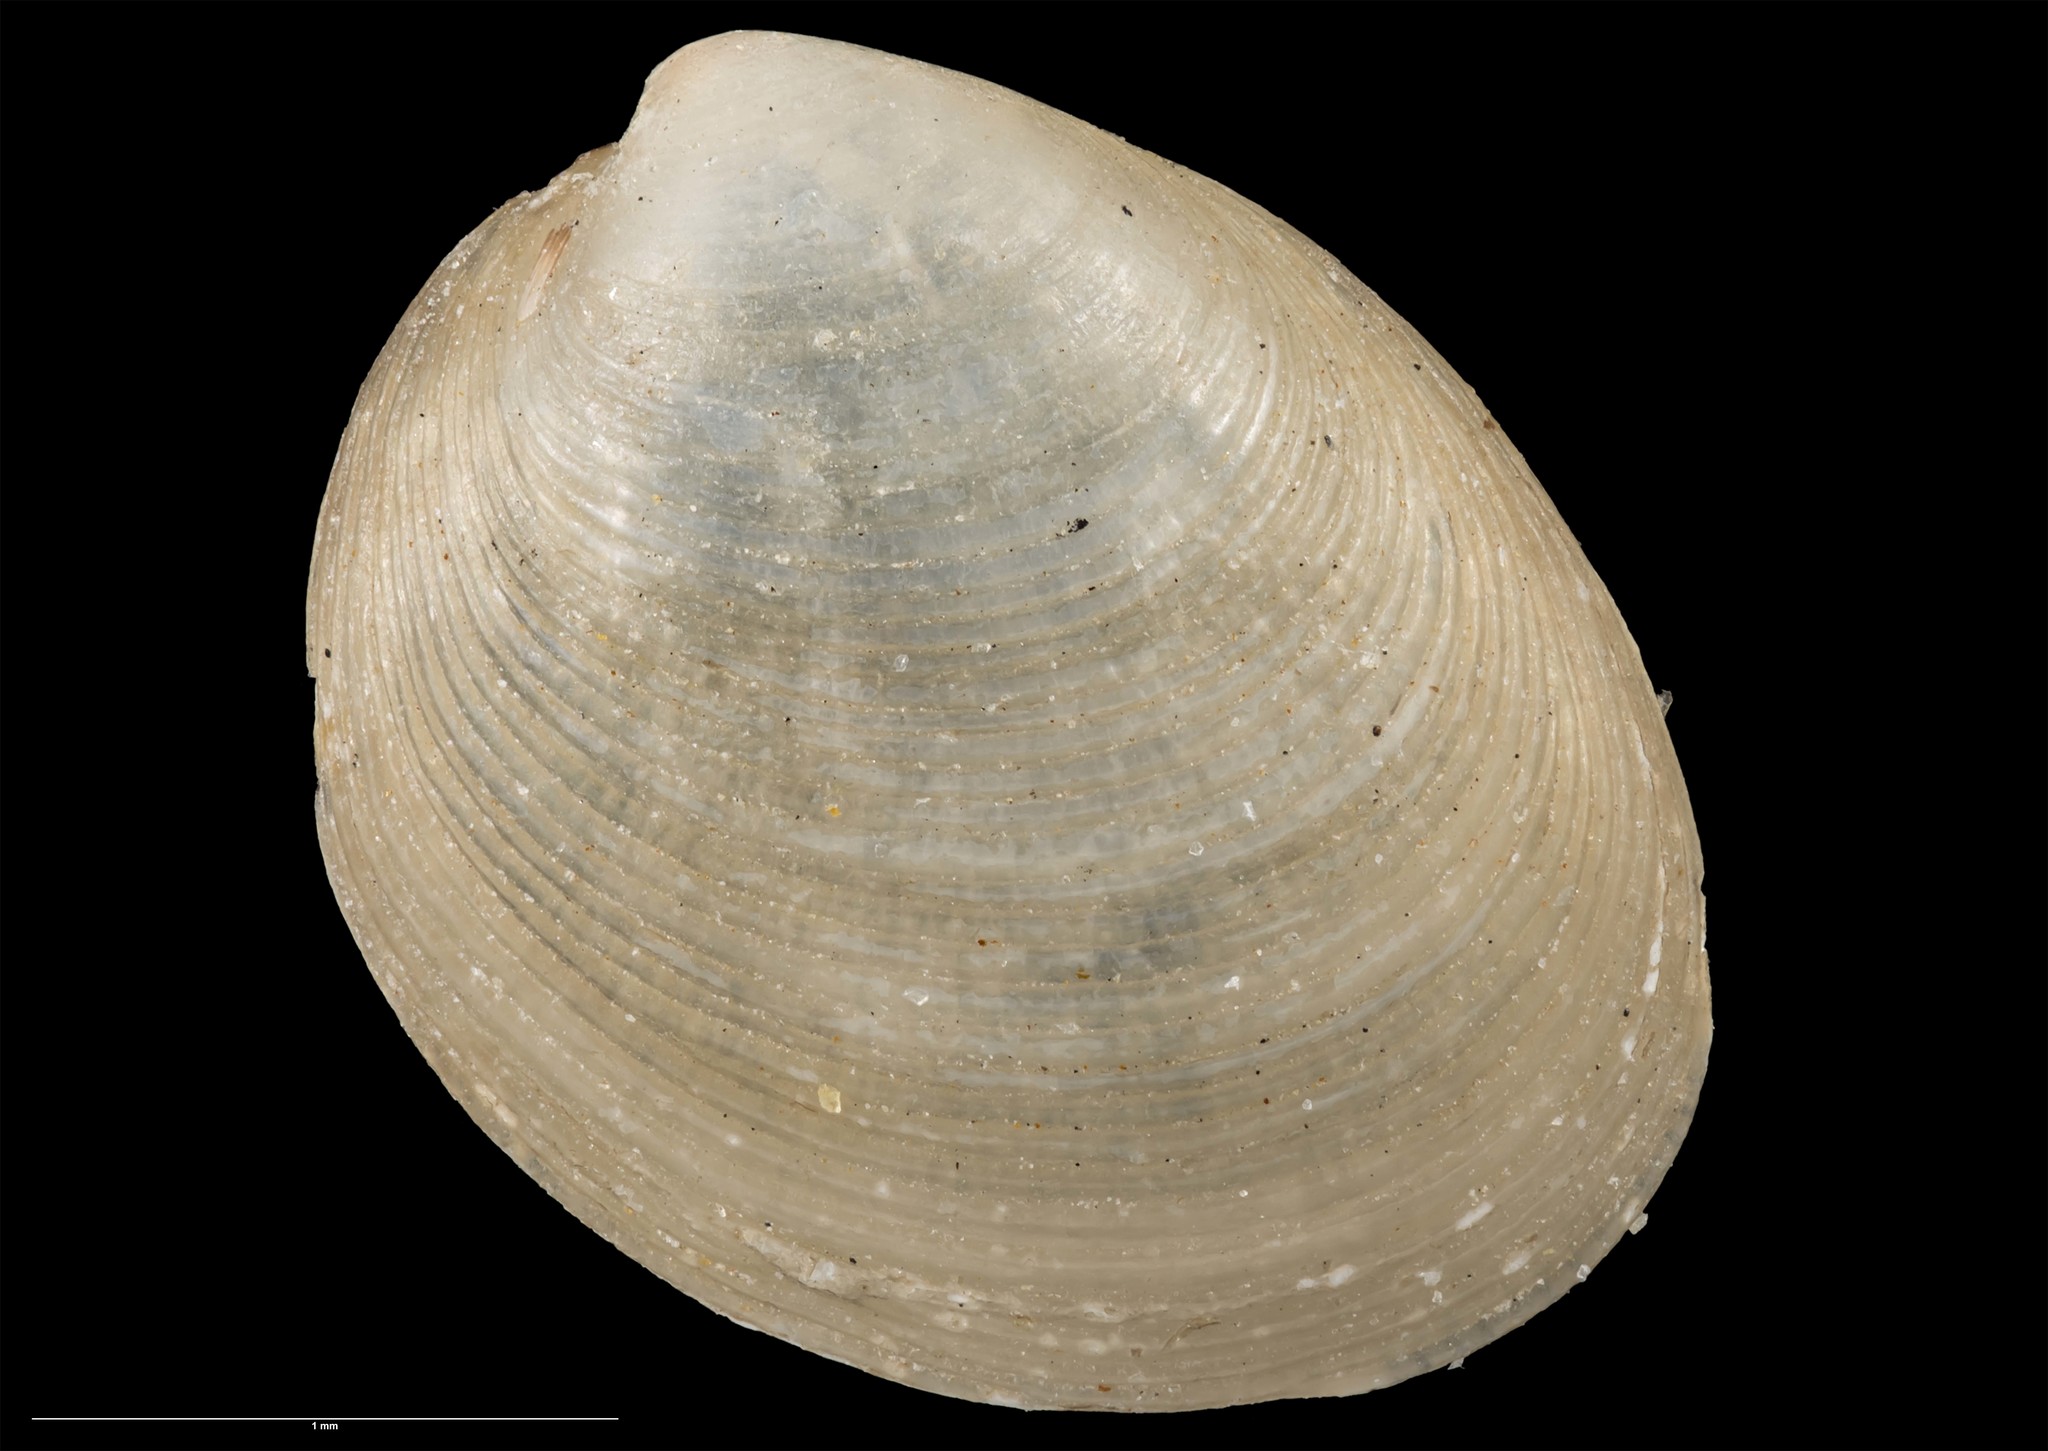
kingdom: Animalia
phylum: Mollusca
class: Bivalvia
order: Nuculida
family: Nuculidae
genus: Nucula
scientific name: Nucula rossiana
